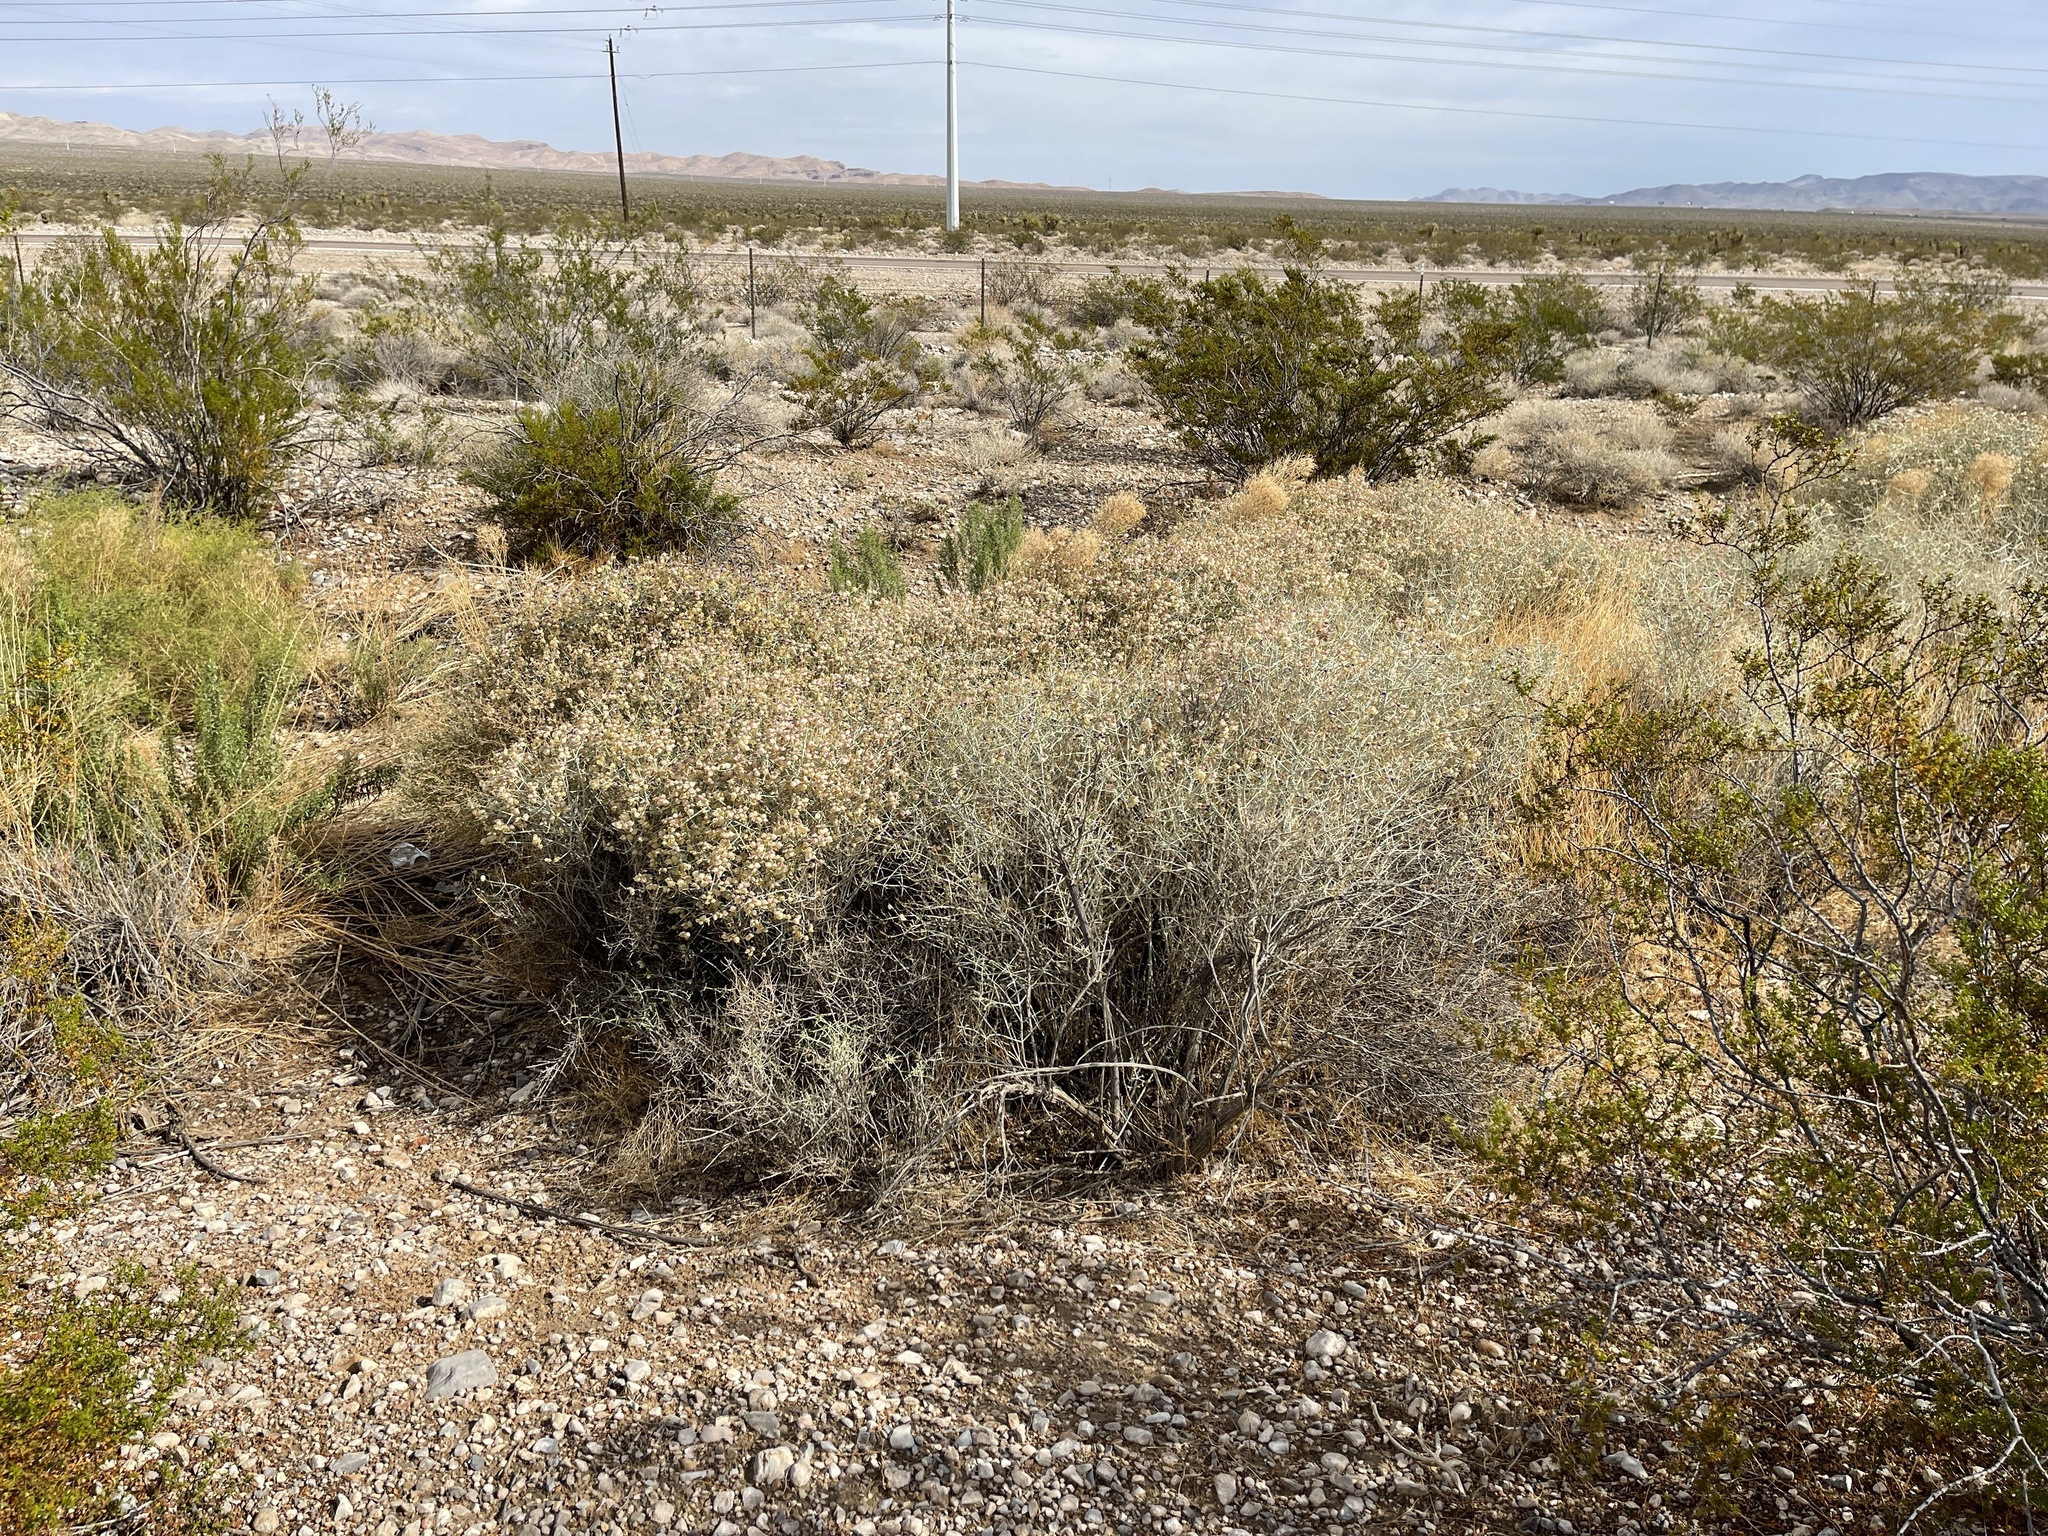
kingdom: Plantae
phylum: Tracheophyta
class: Magnoliopsida
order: Lamiales
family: Lamiaceae
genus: Scutellaria
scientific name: Scutellaria mexicana
